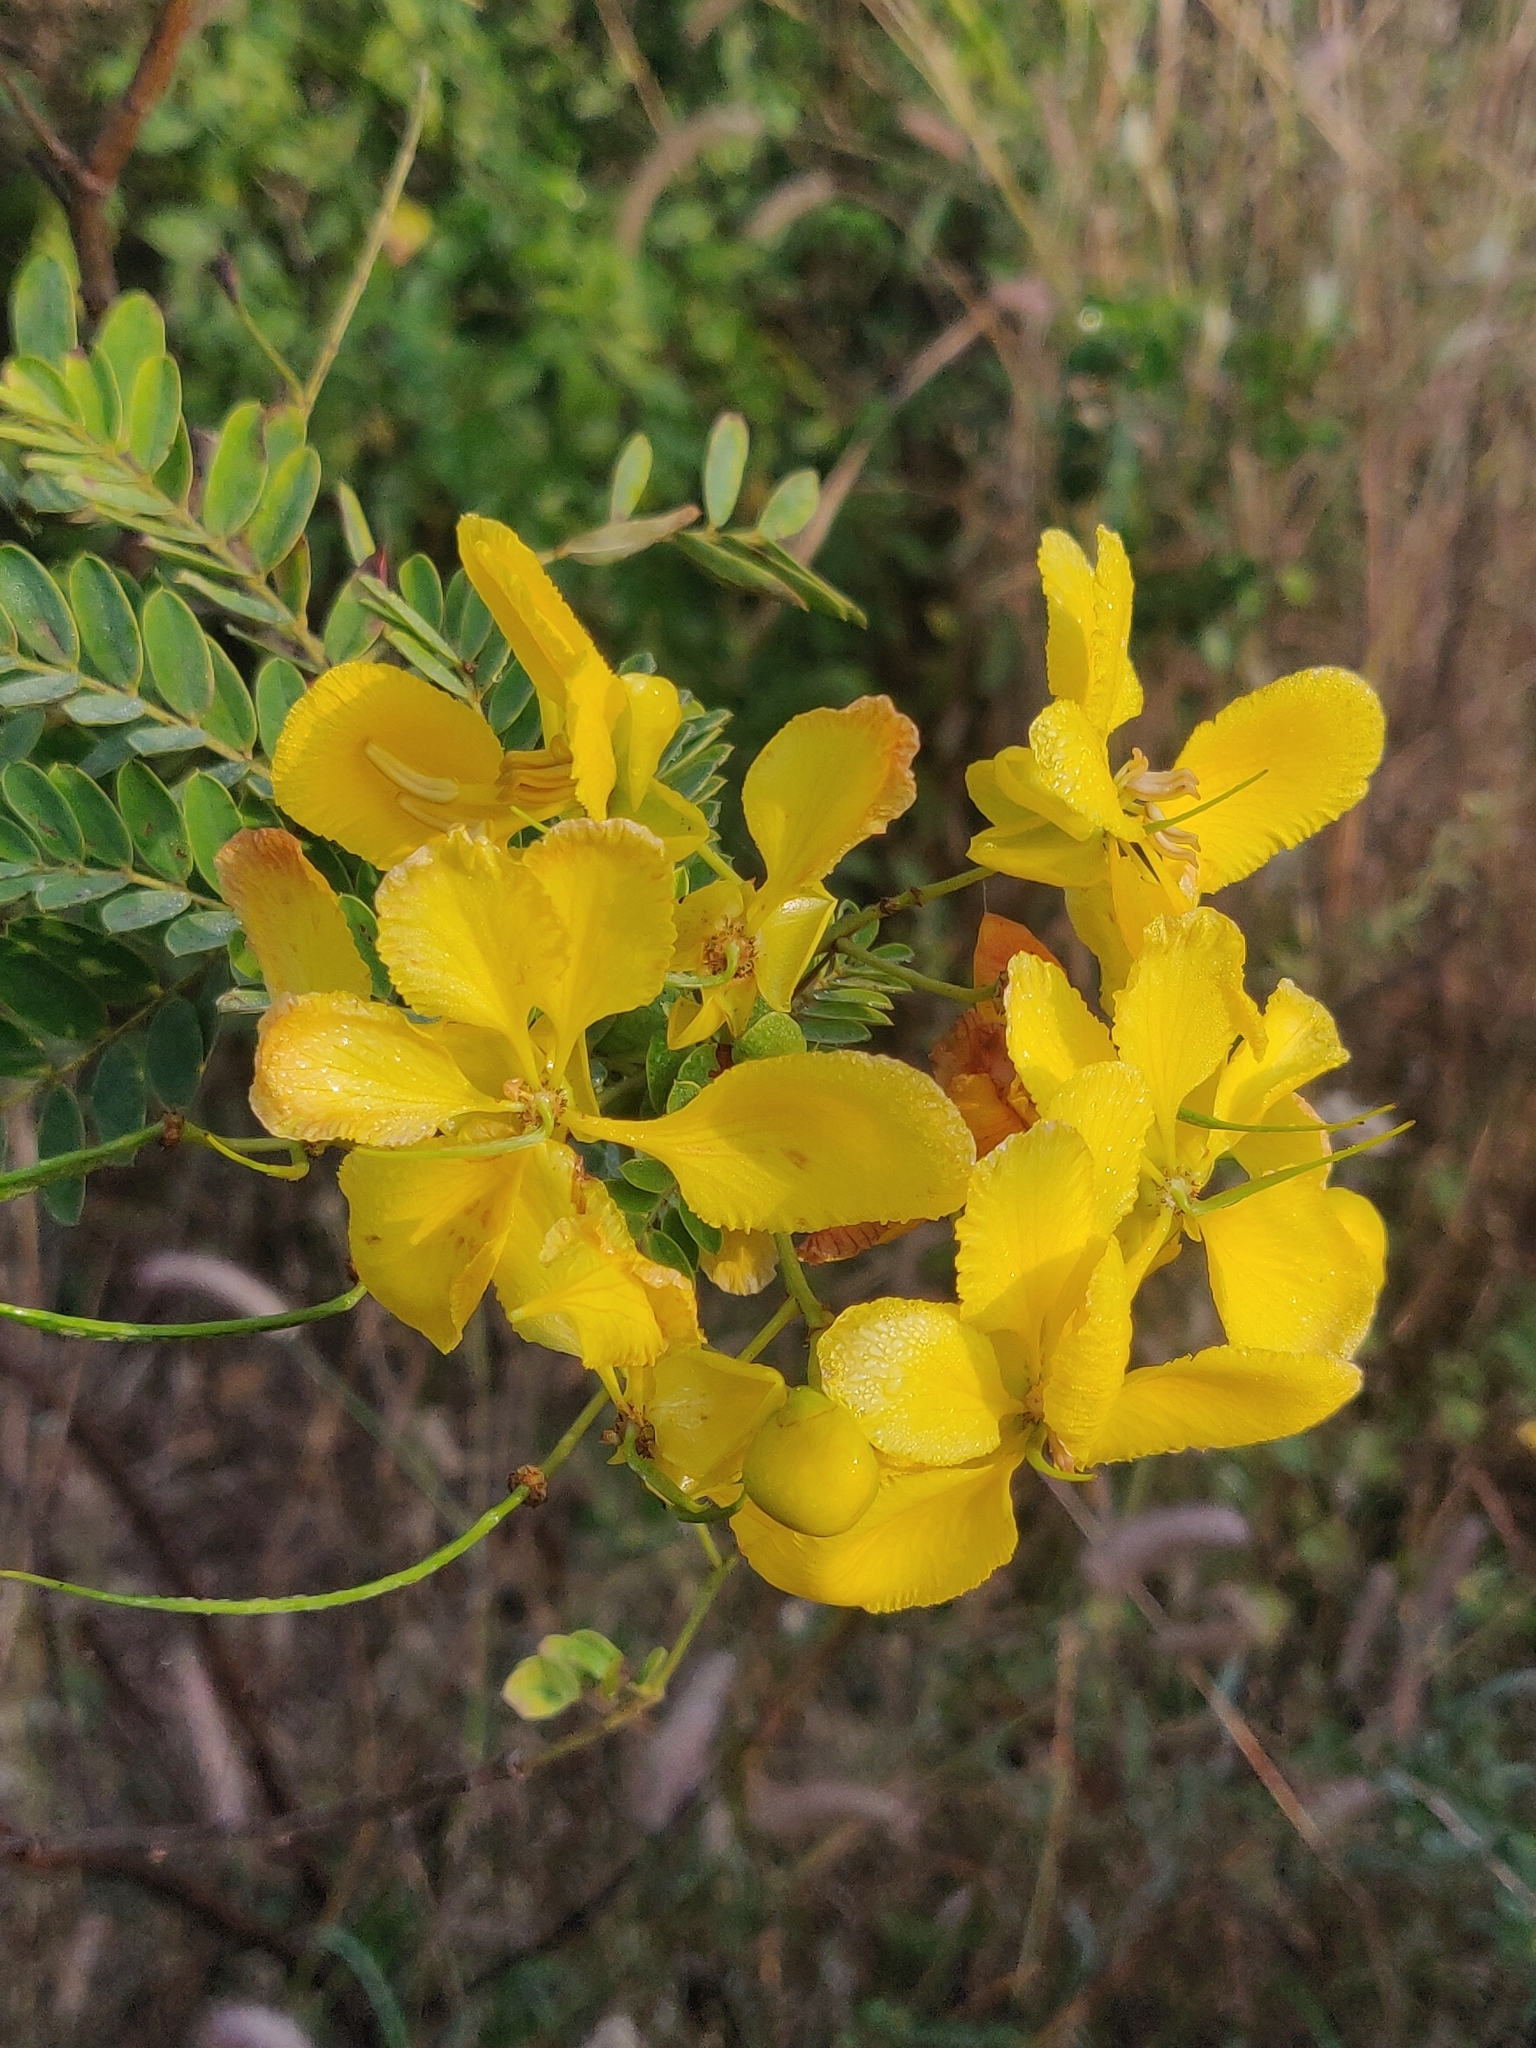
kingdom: Plantae
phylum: Tracheophyta
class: Magnoliopsida
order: Fabales
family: Fabaceae
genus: Senna
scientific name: Senna auriculata
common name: Tanner's cassia
